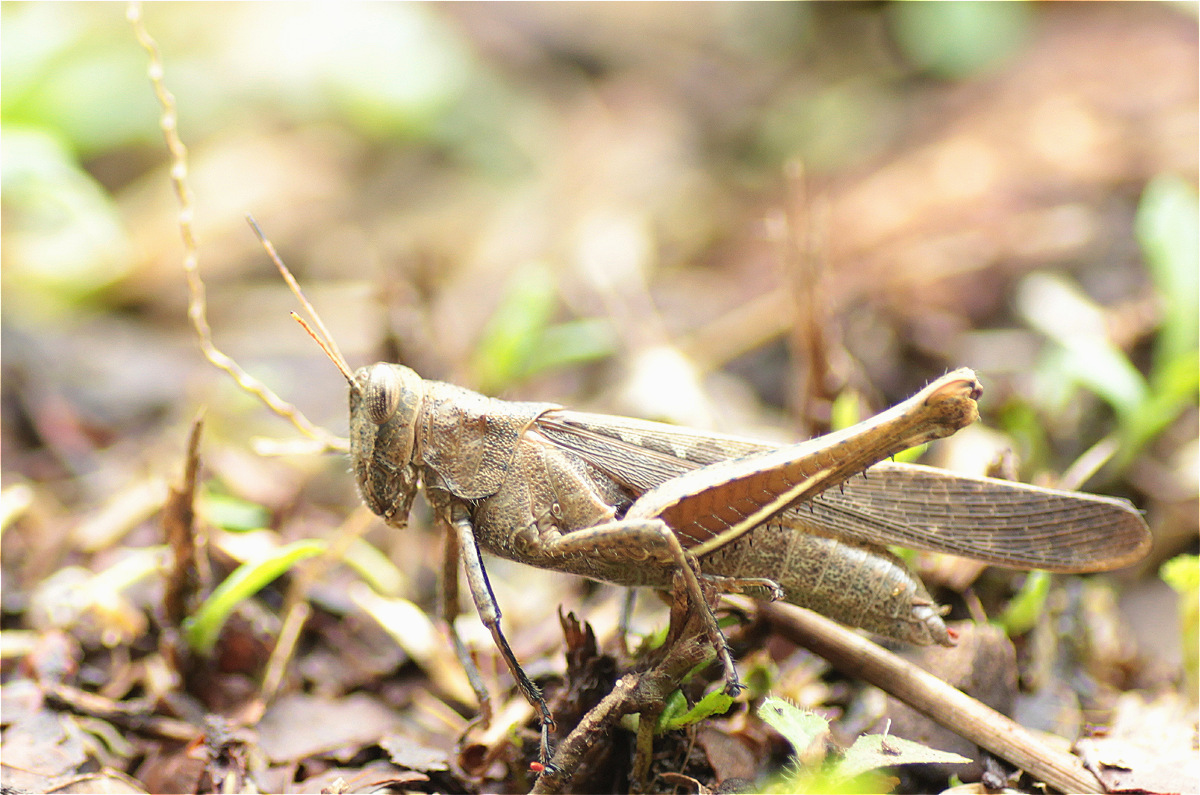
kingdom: Animalia
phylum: Arthropoda
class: Insecta
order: Orthoptera
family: Acrididae
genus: Abracris
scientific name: Abracris flavolineata
